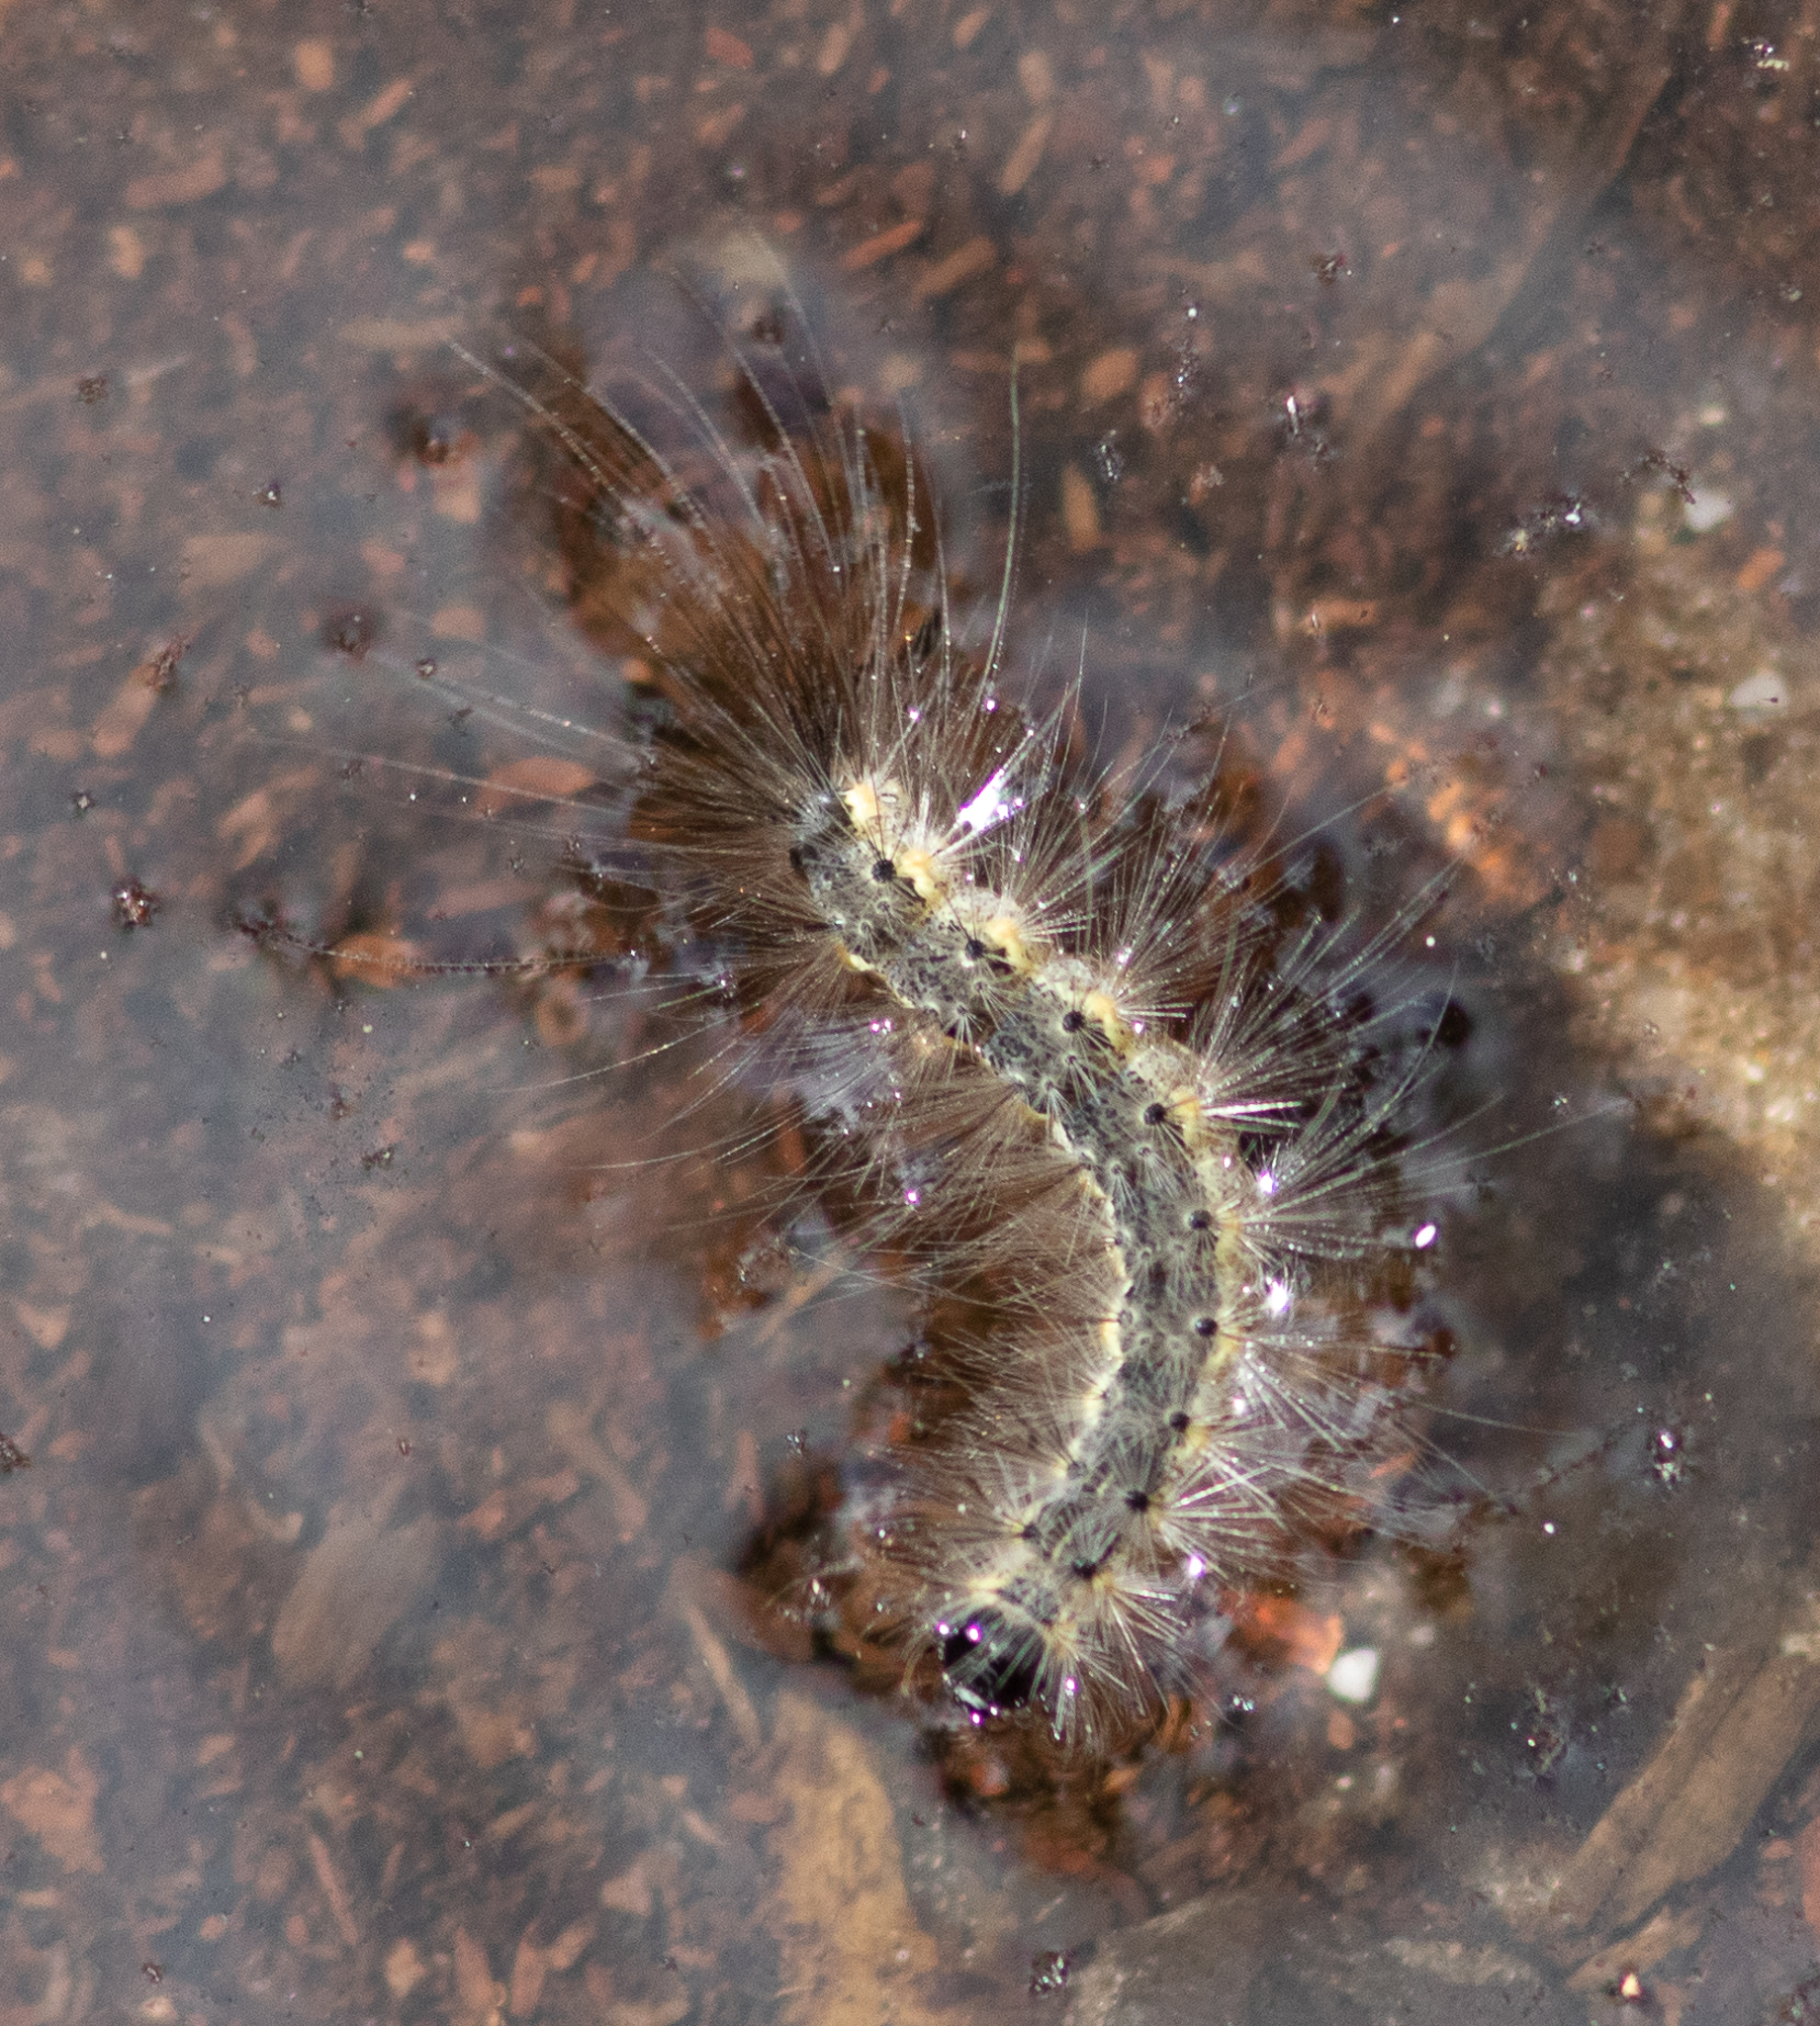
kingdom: Animalia
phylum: Arthropoda
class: Insecta
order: Lepidoptera
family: Erebidae
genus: Hyphantria
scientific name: Hyphantria cunea
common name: American white moth
